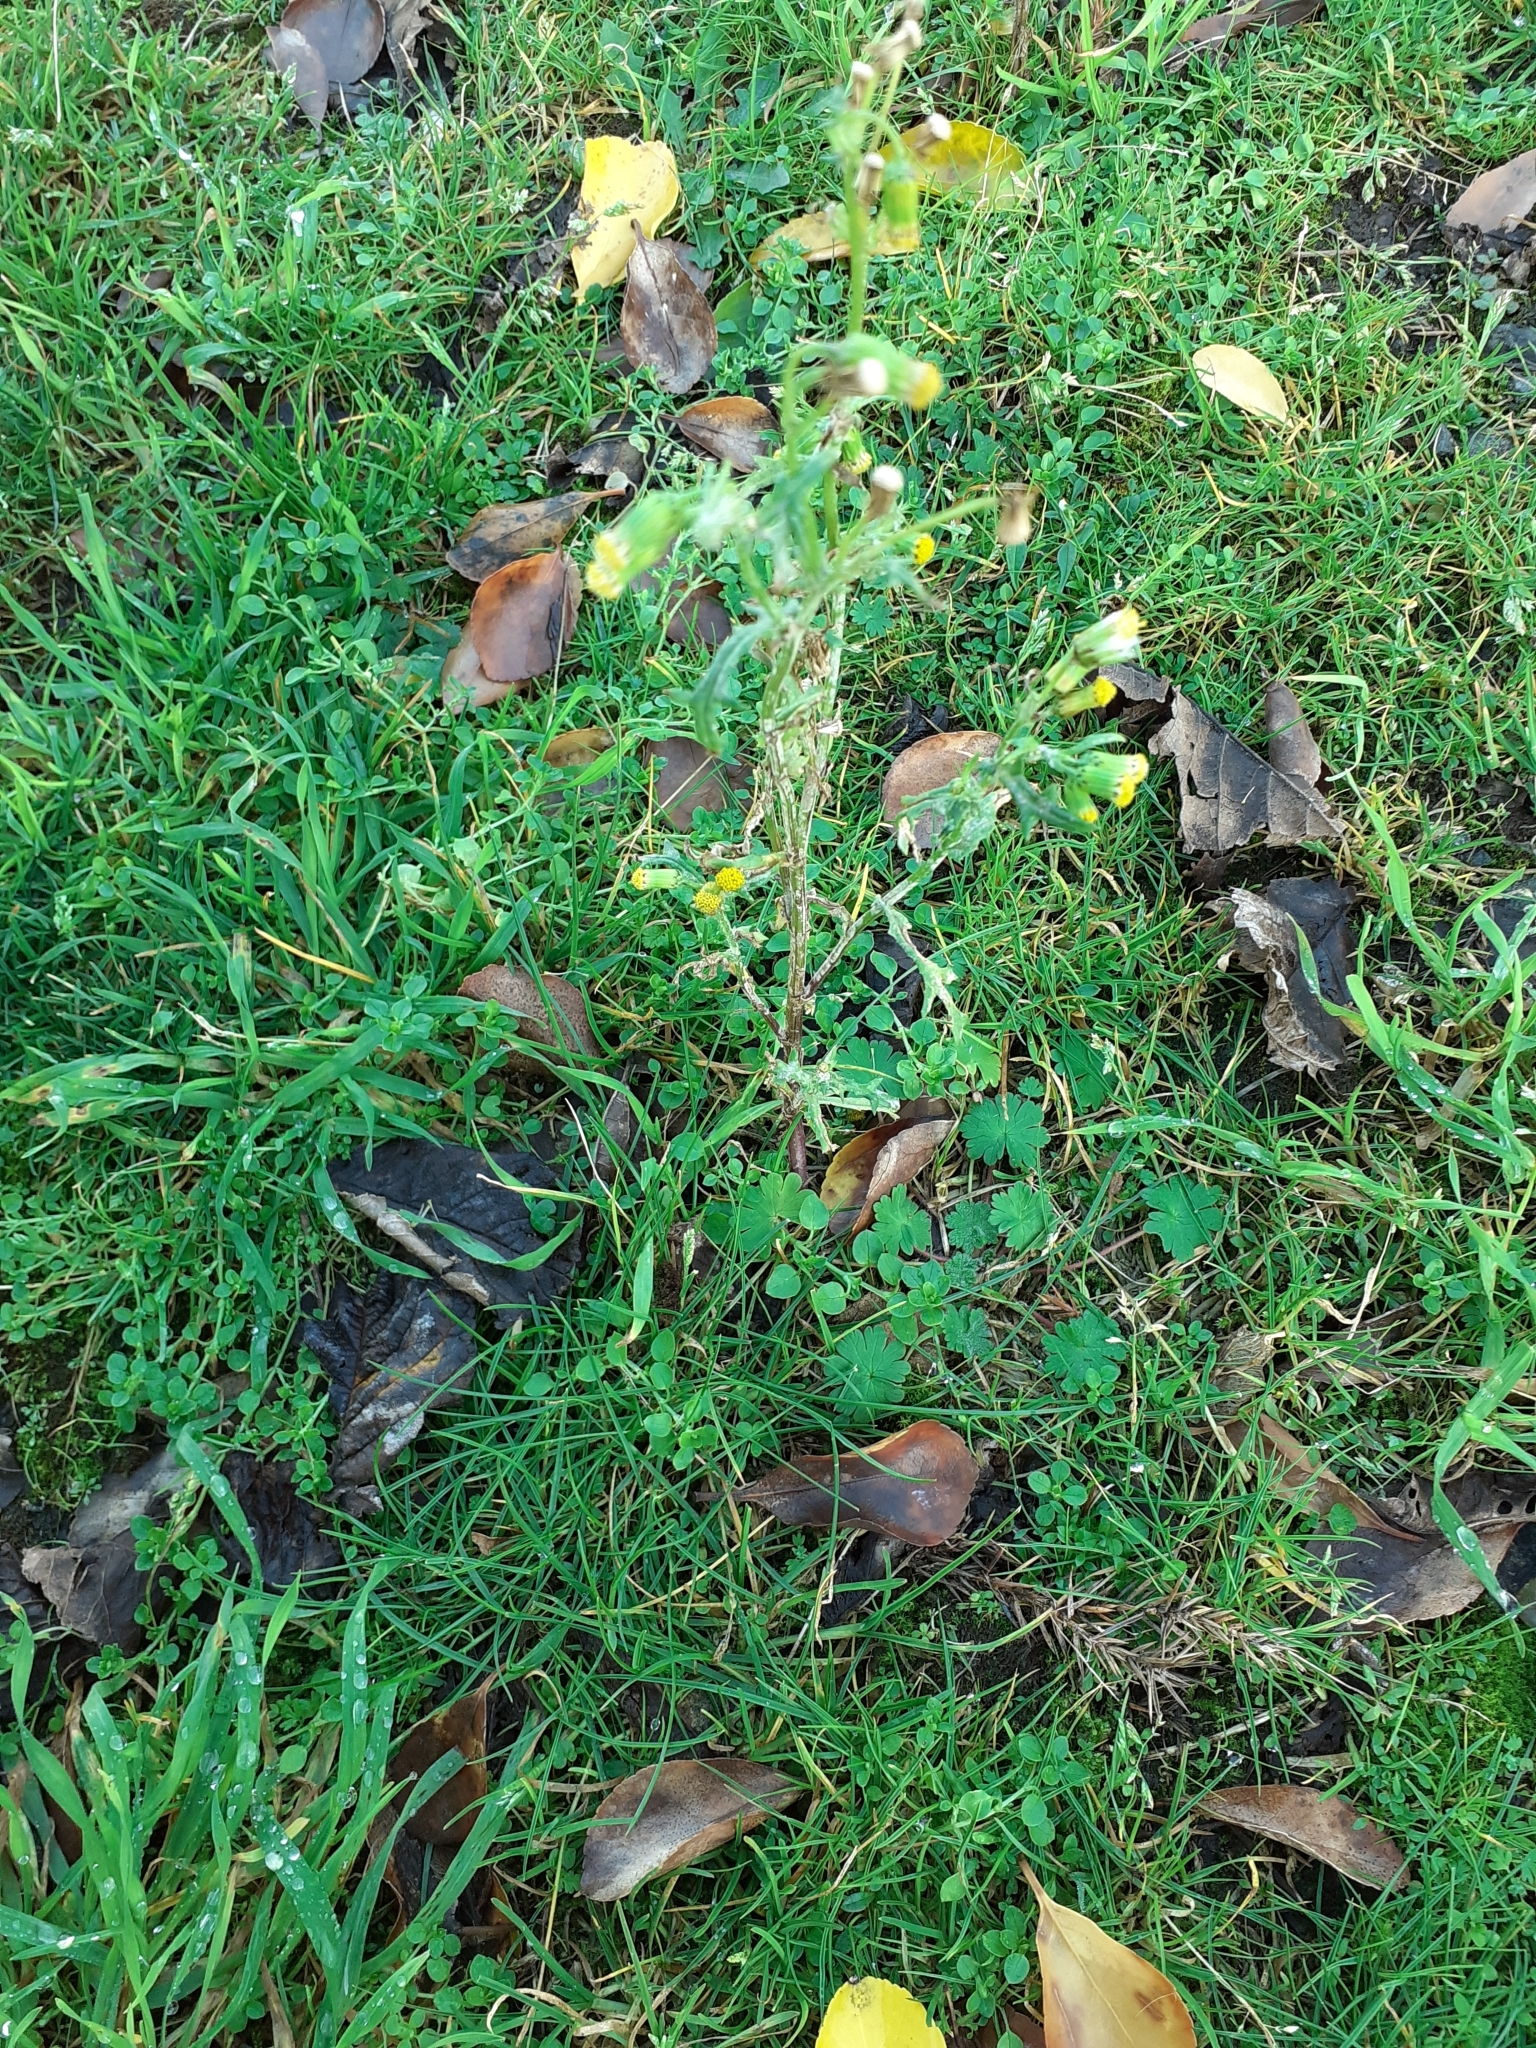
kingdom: Plantae
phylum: Tracheophyta
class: Magnoliopsida
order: Asterales
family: Asteraceae
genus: Senecio
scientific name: Senecio vulgaris
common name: Old-man-in-the-spring
